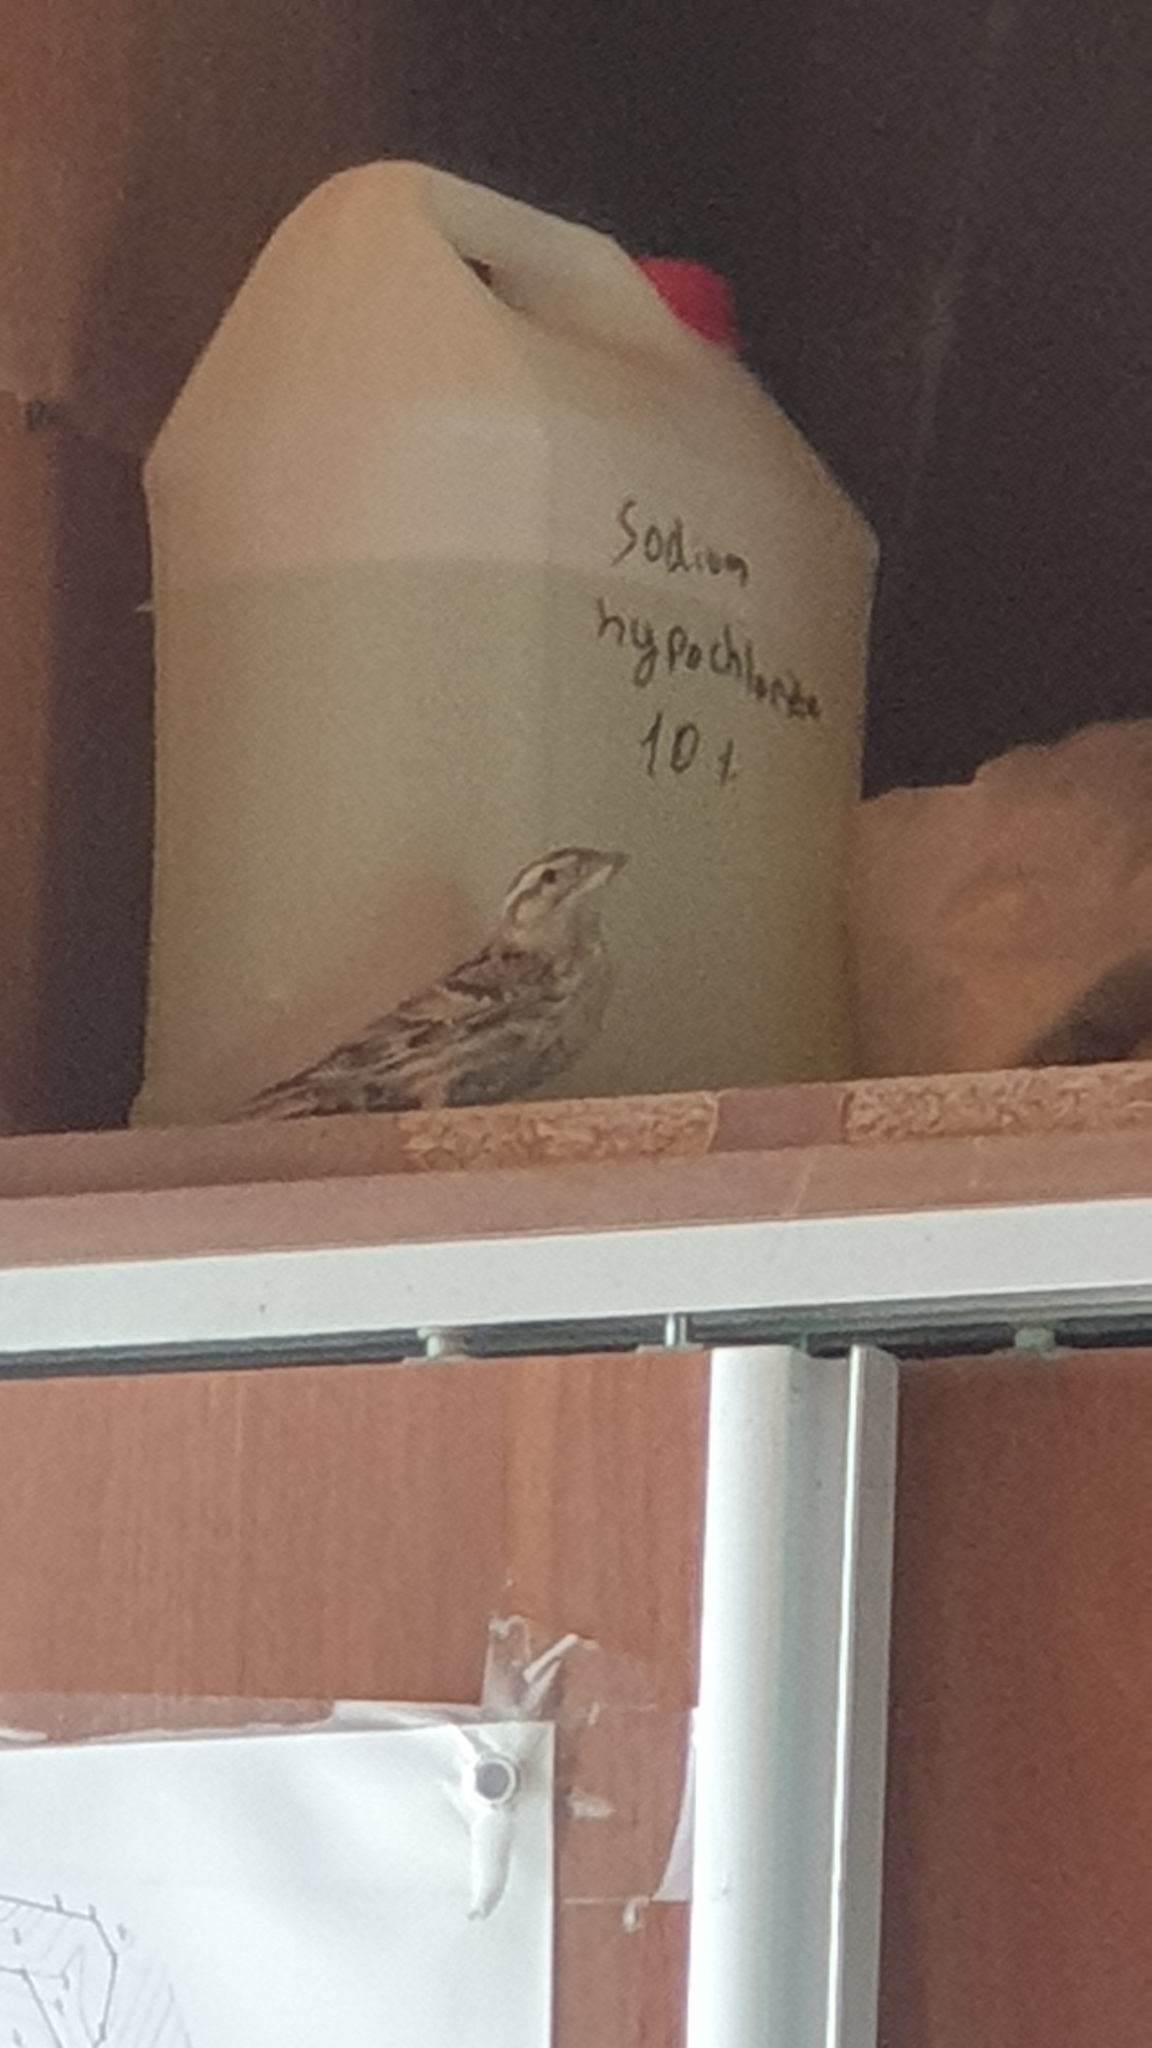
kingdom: Animalia
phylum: Chordata
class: Aves
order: Passeriformes
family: Passeridae
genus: Petronia
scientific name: Petronia petronia
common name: Rock sparrow
